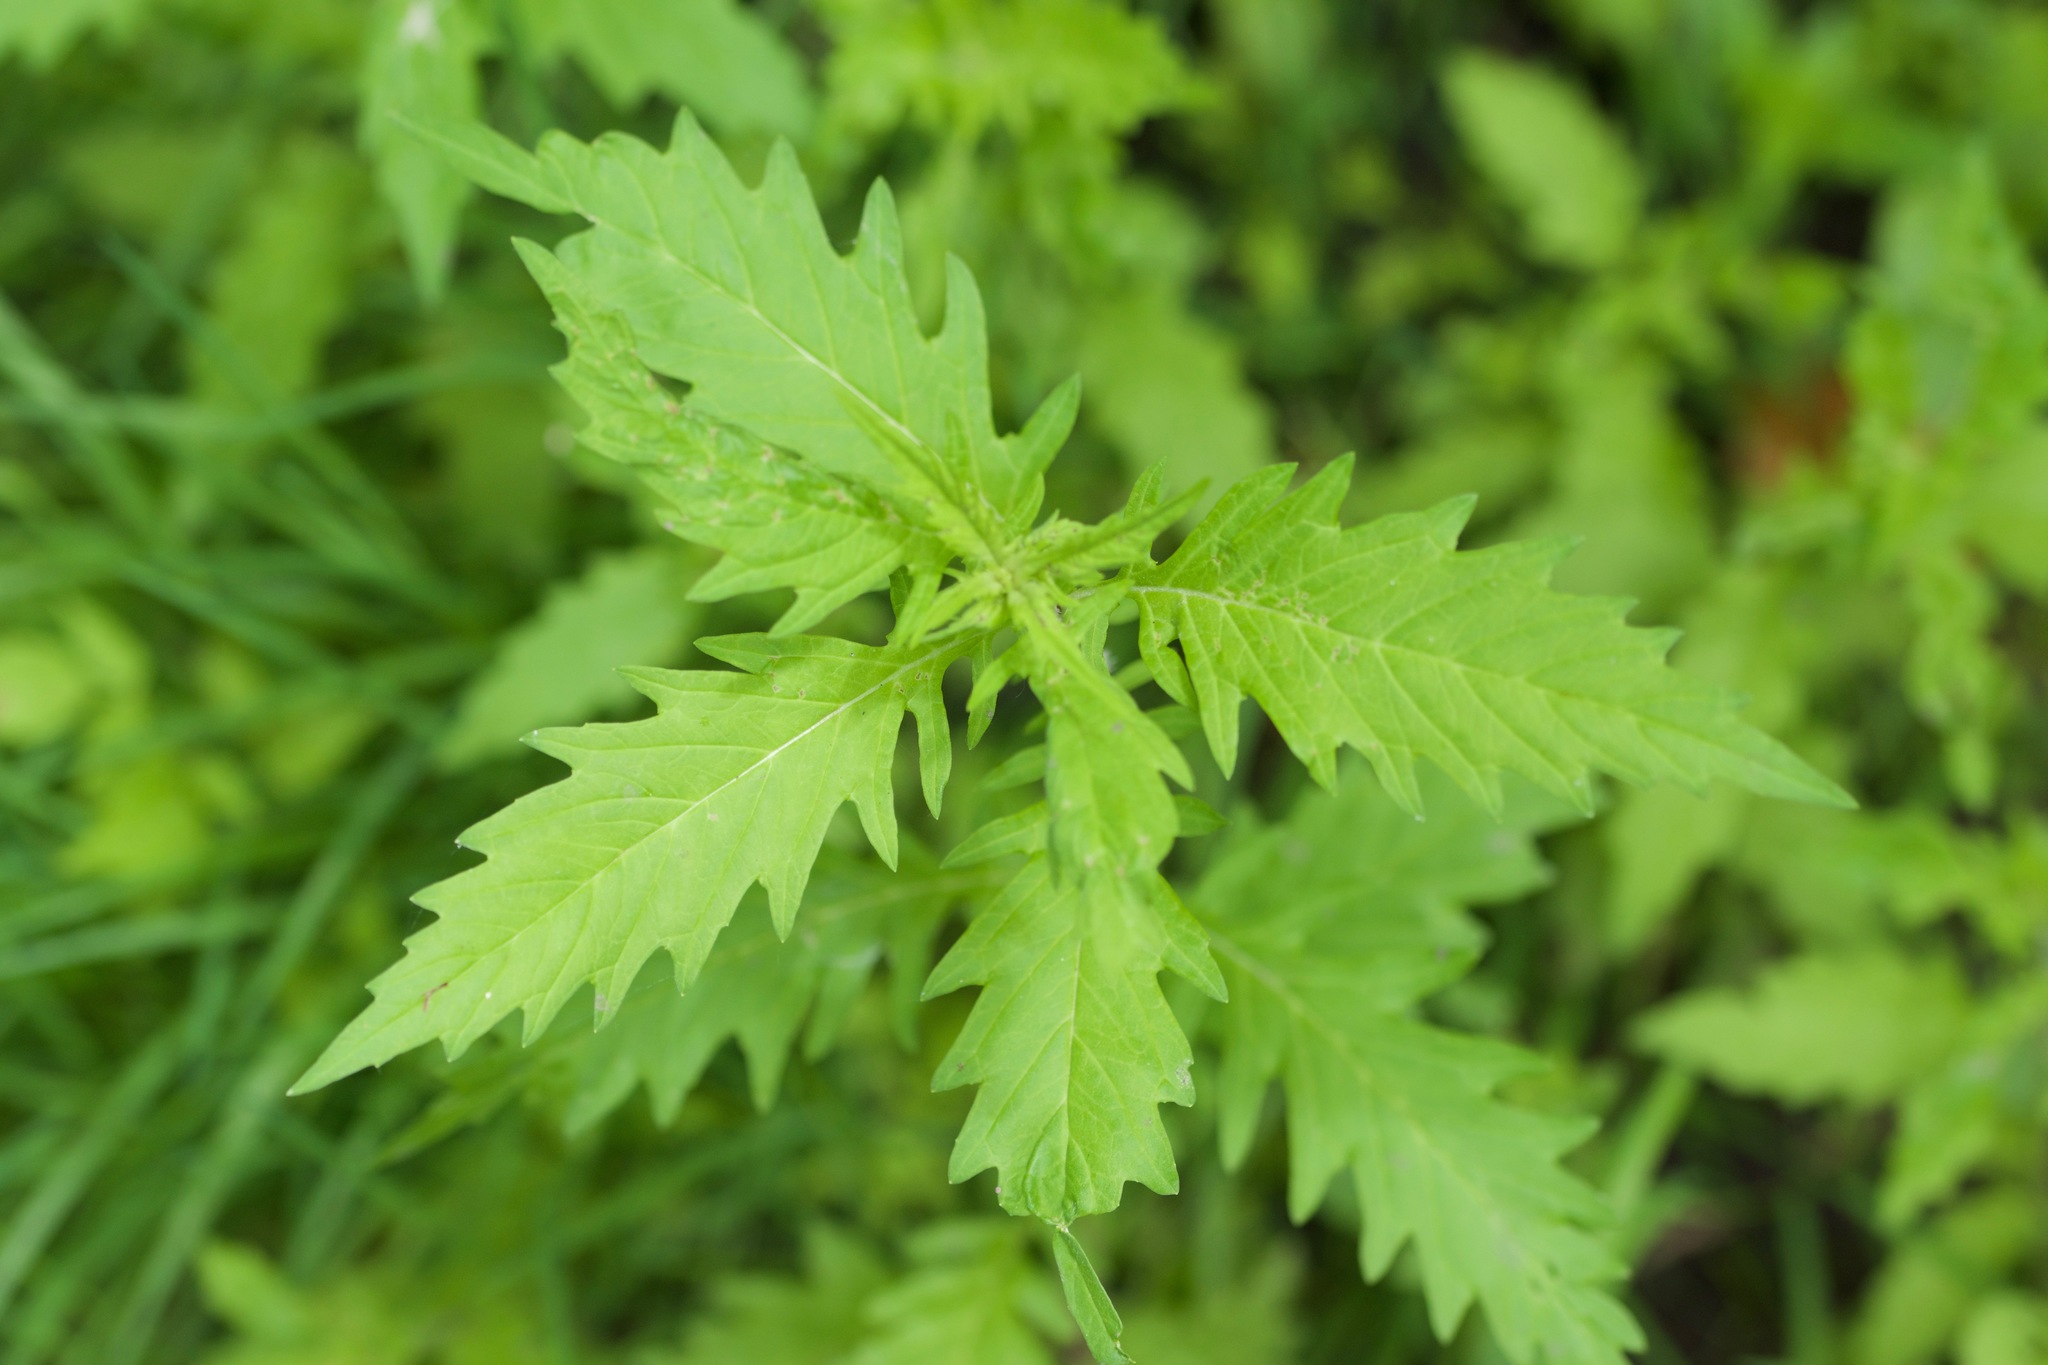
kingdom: Plantae
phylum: Tracheophyta
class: Magnoliopsida
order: Lamiales
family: Lamiaceae
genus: Lycopus
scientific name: Lycopus americanus
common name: American bugleweed
